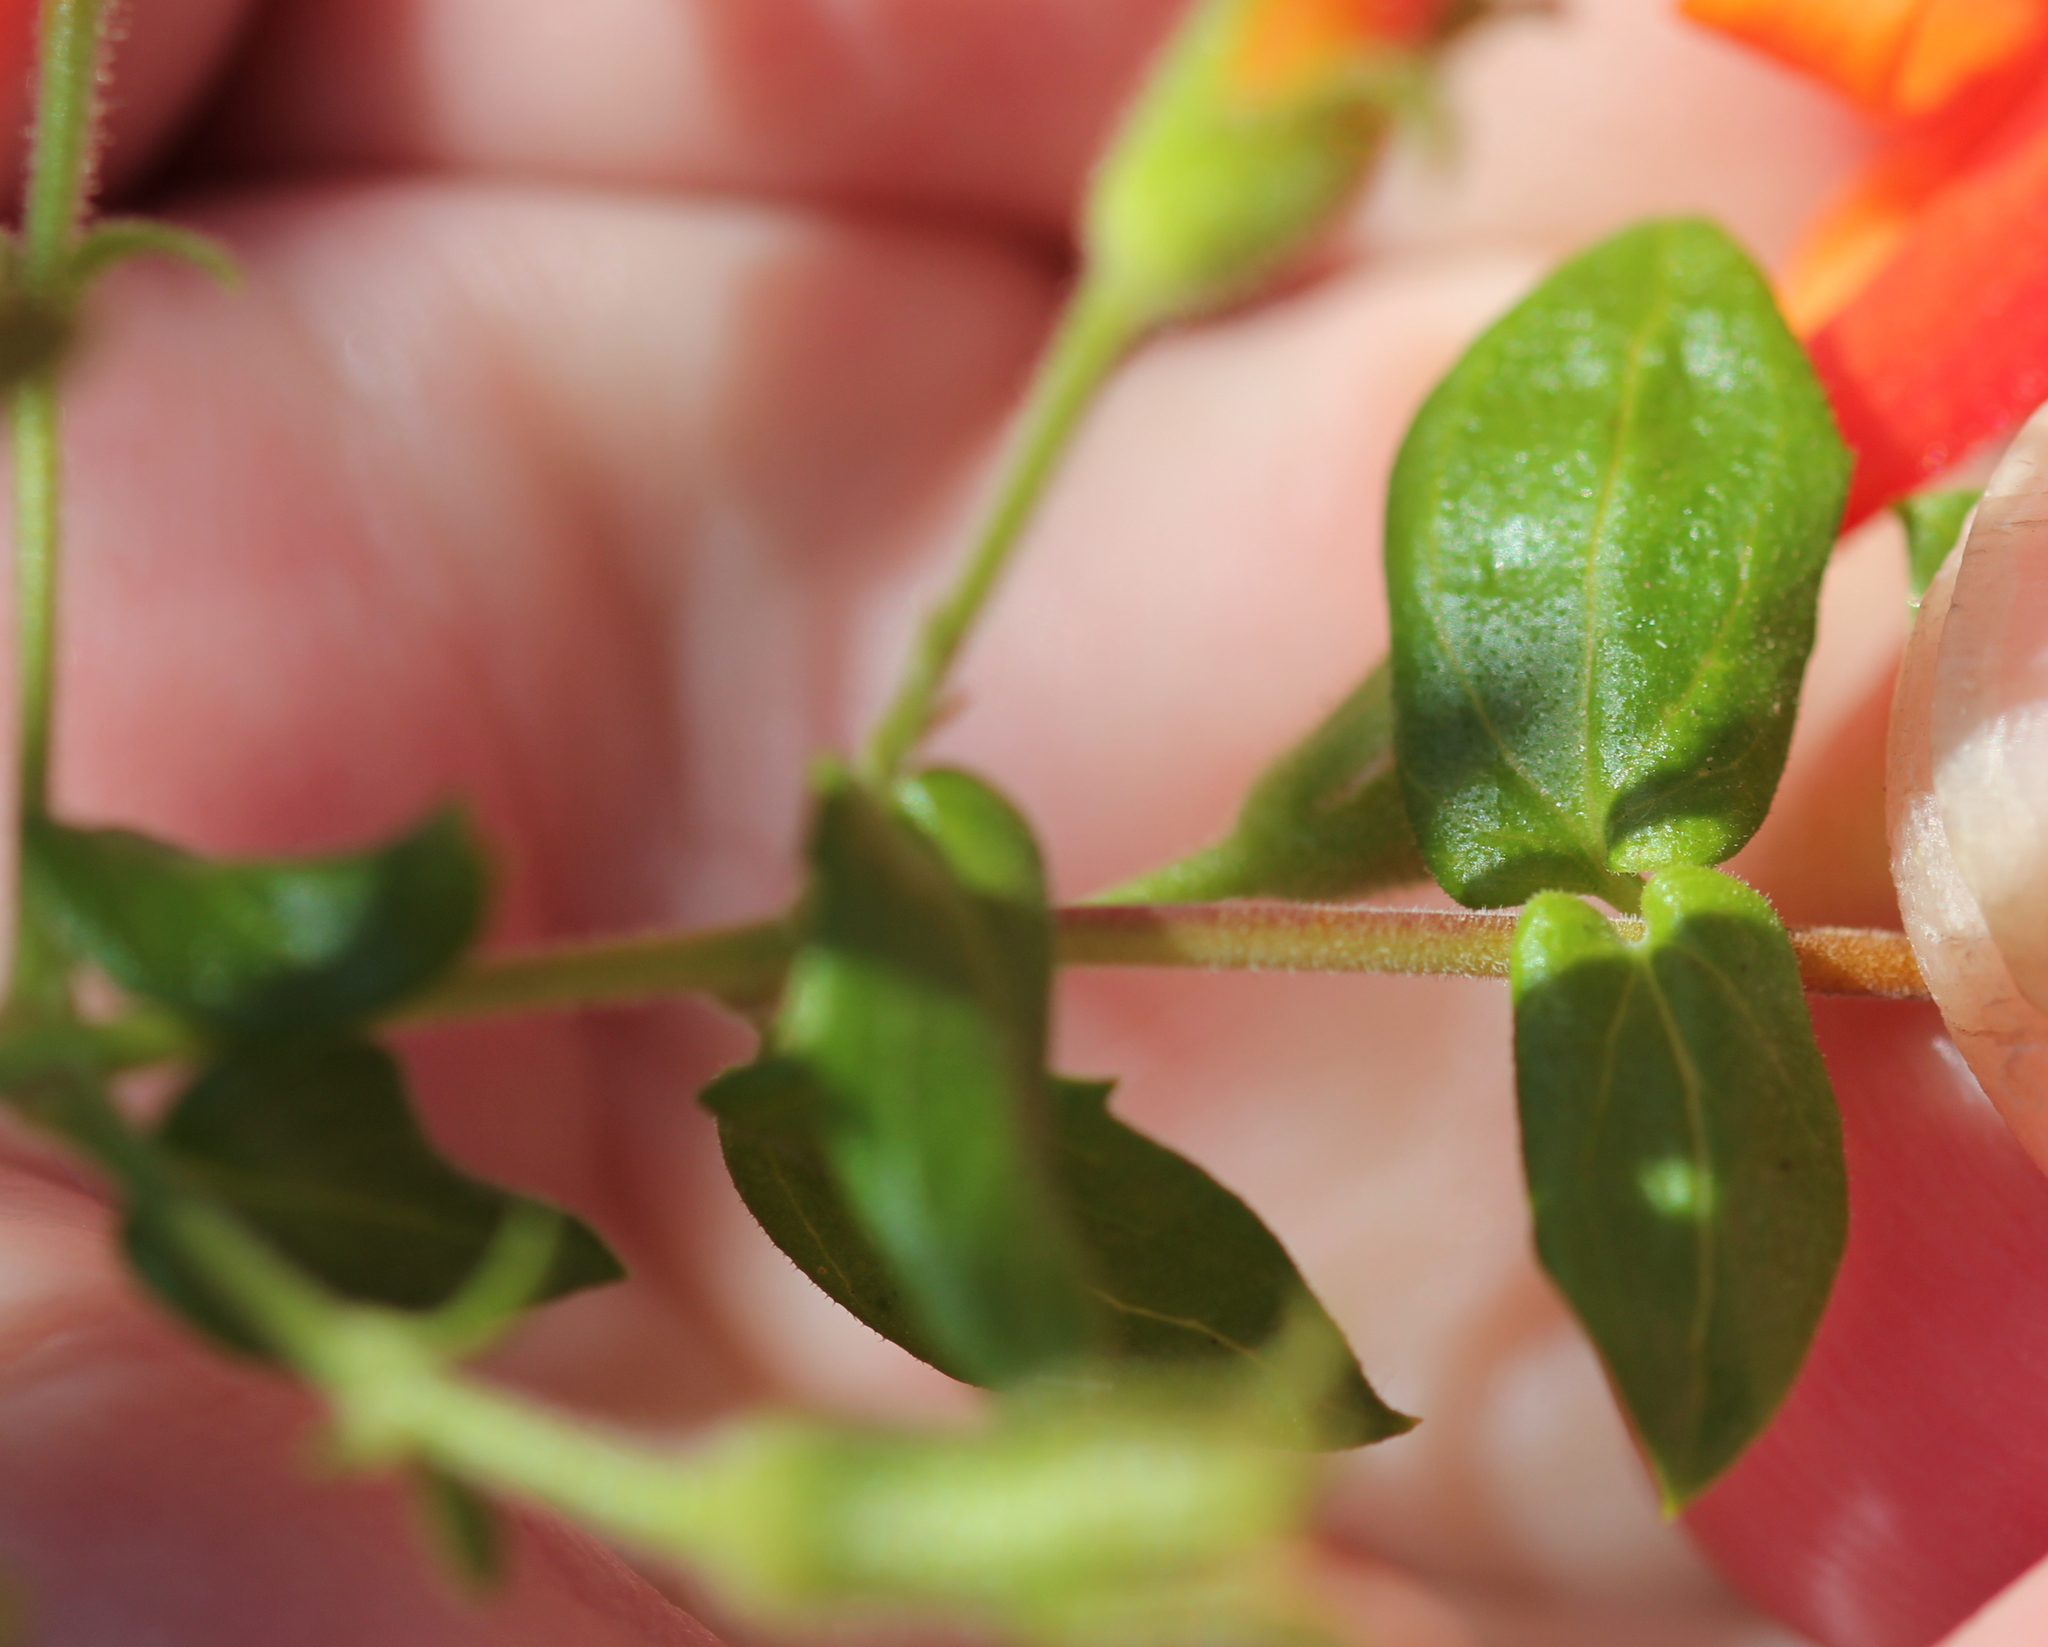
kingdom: Plantae
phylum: Tracheophyta
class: Magnoliopsida
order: Lamiales
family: Plantaginaceae
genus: Keckiella
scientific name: Keckiella cordifolia
